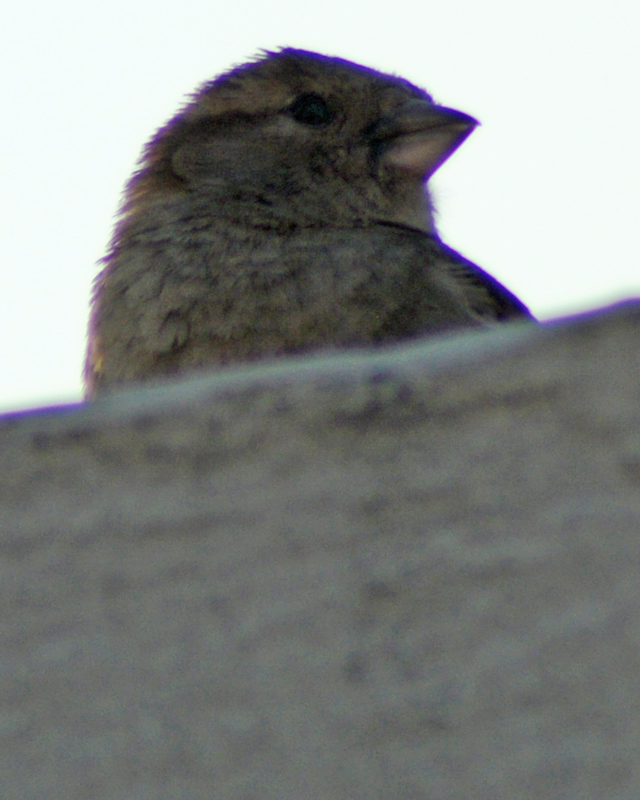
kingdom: Animalia
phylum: Chordata
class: Aves
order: Passeriformes
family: Passeridae
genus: Passer
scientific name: Passer domesticus
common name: House sparrow
